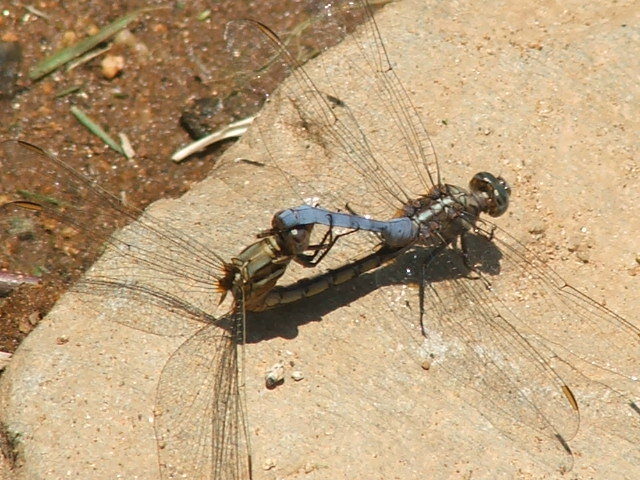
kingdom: Animalia
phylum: Arthropoda
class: Insecta
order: Odonata
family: Libellulidae
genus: Orthetrum
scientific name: Orthetrum chrysostigma
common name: Epaulet skimmer
